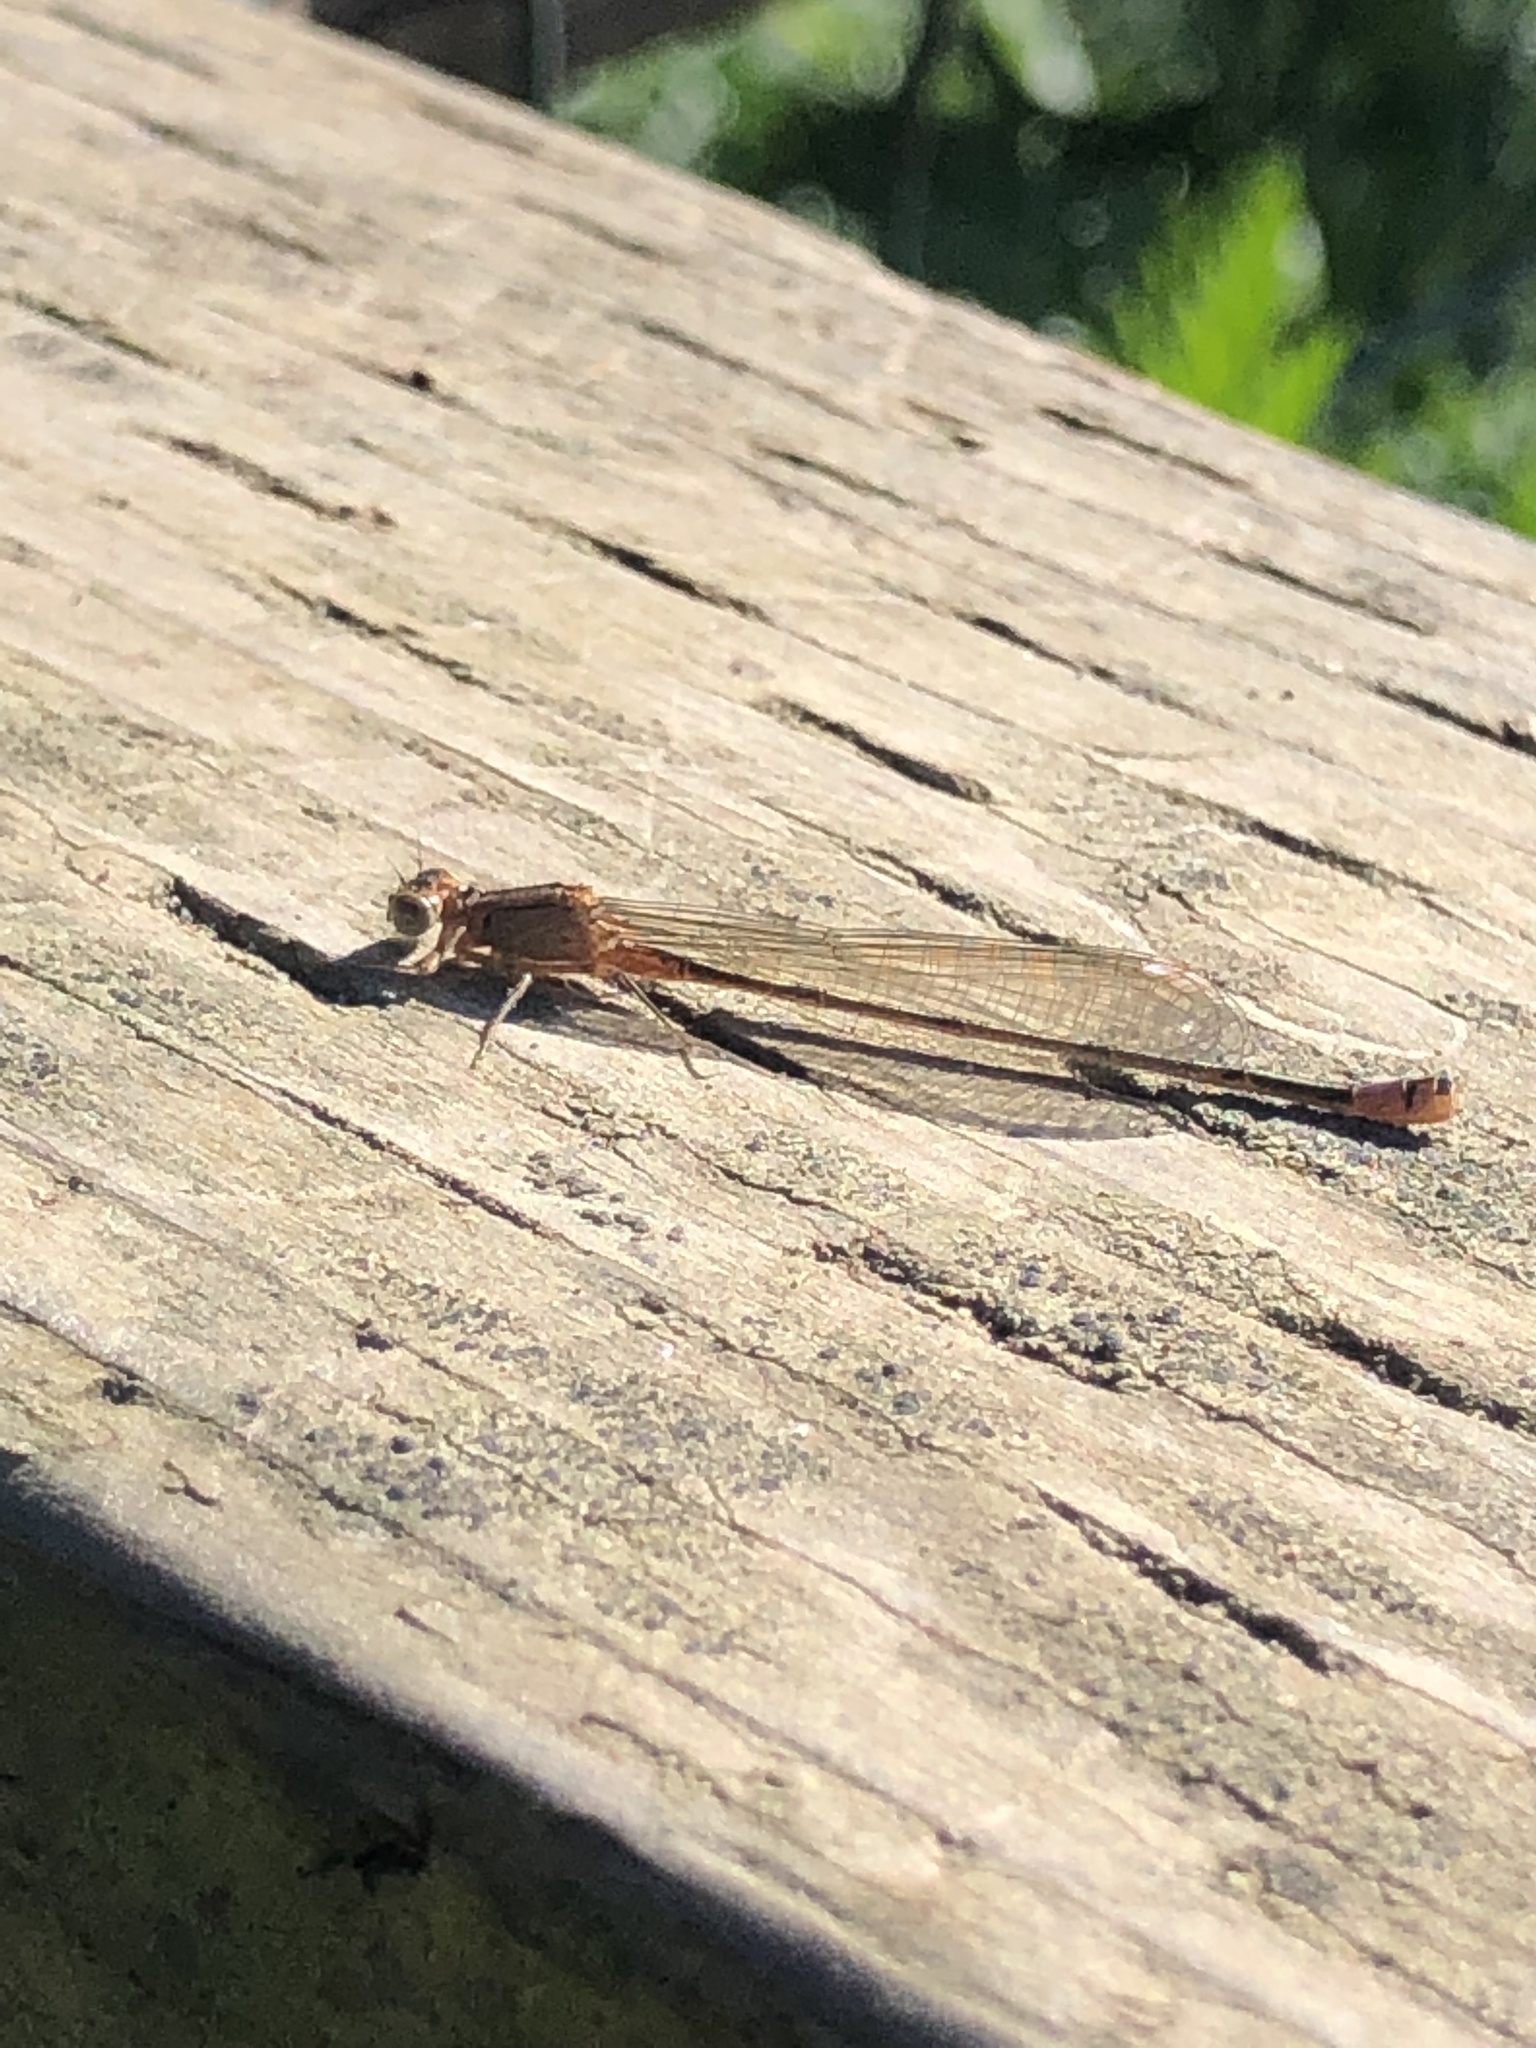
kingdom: Animalia
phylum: Arthropoda
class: Insecta
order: Odonata
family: Coenagrionidae
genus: Ischnura
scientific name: Ischnura cervula
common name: Pacific forktail
